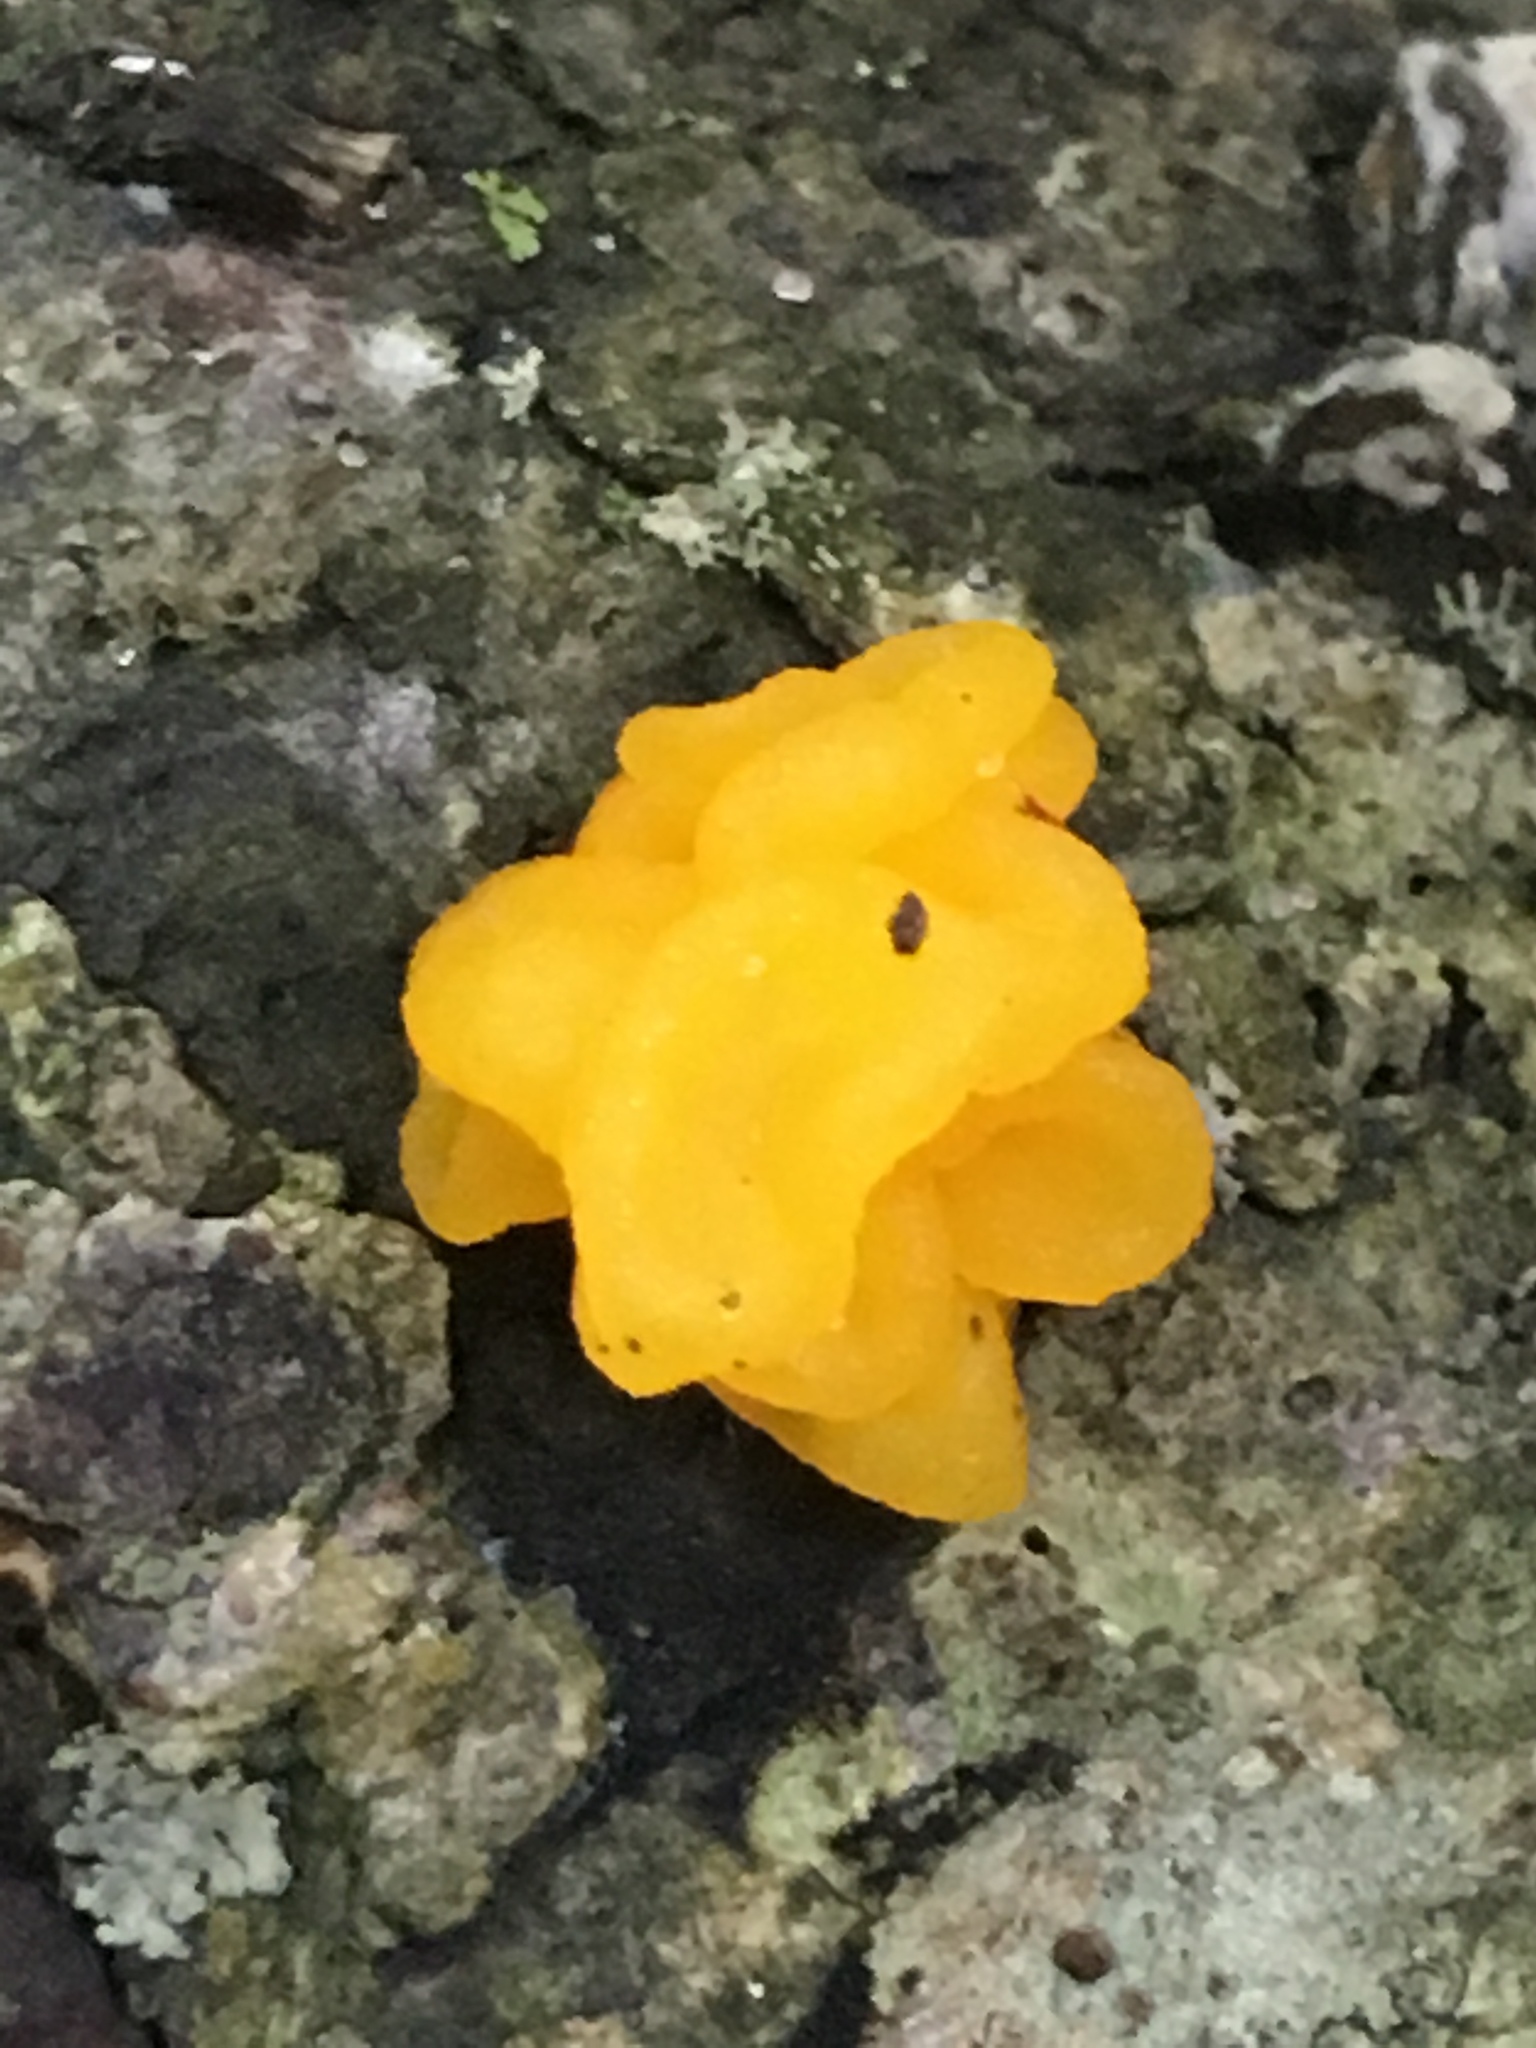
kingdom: Fungi
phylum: Basidiomycota
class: Dacrymycetes
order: Dacrymycetales
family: Dacrymycetaceae
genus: Dacrymyces
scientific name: Dacrymyces chrysospermus
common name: Orange jelly spot
